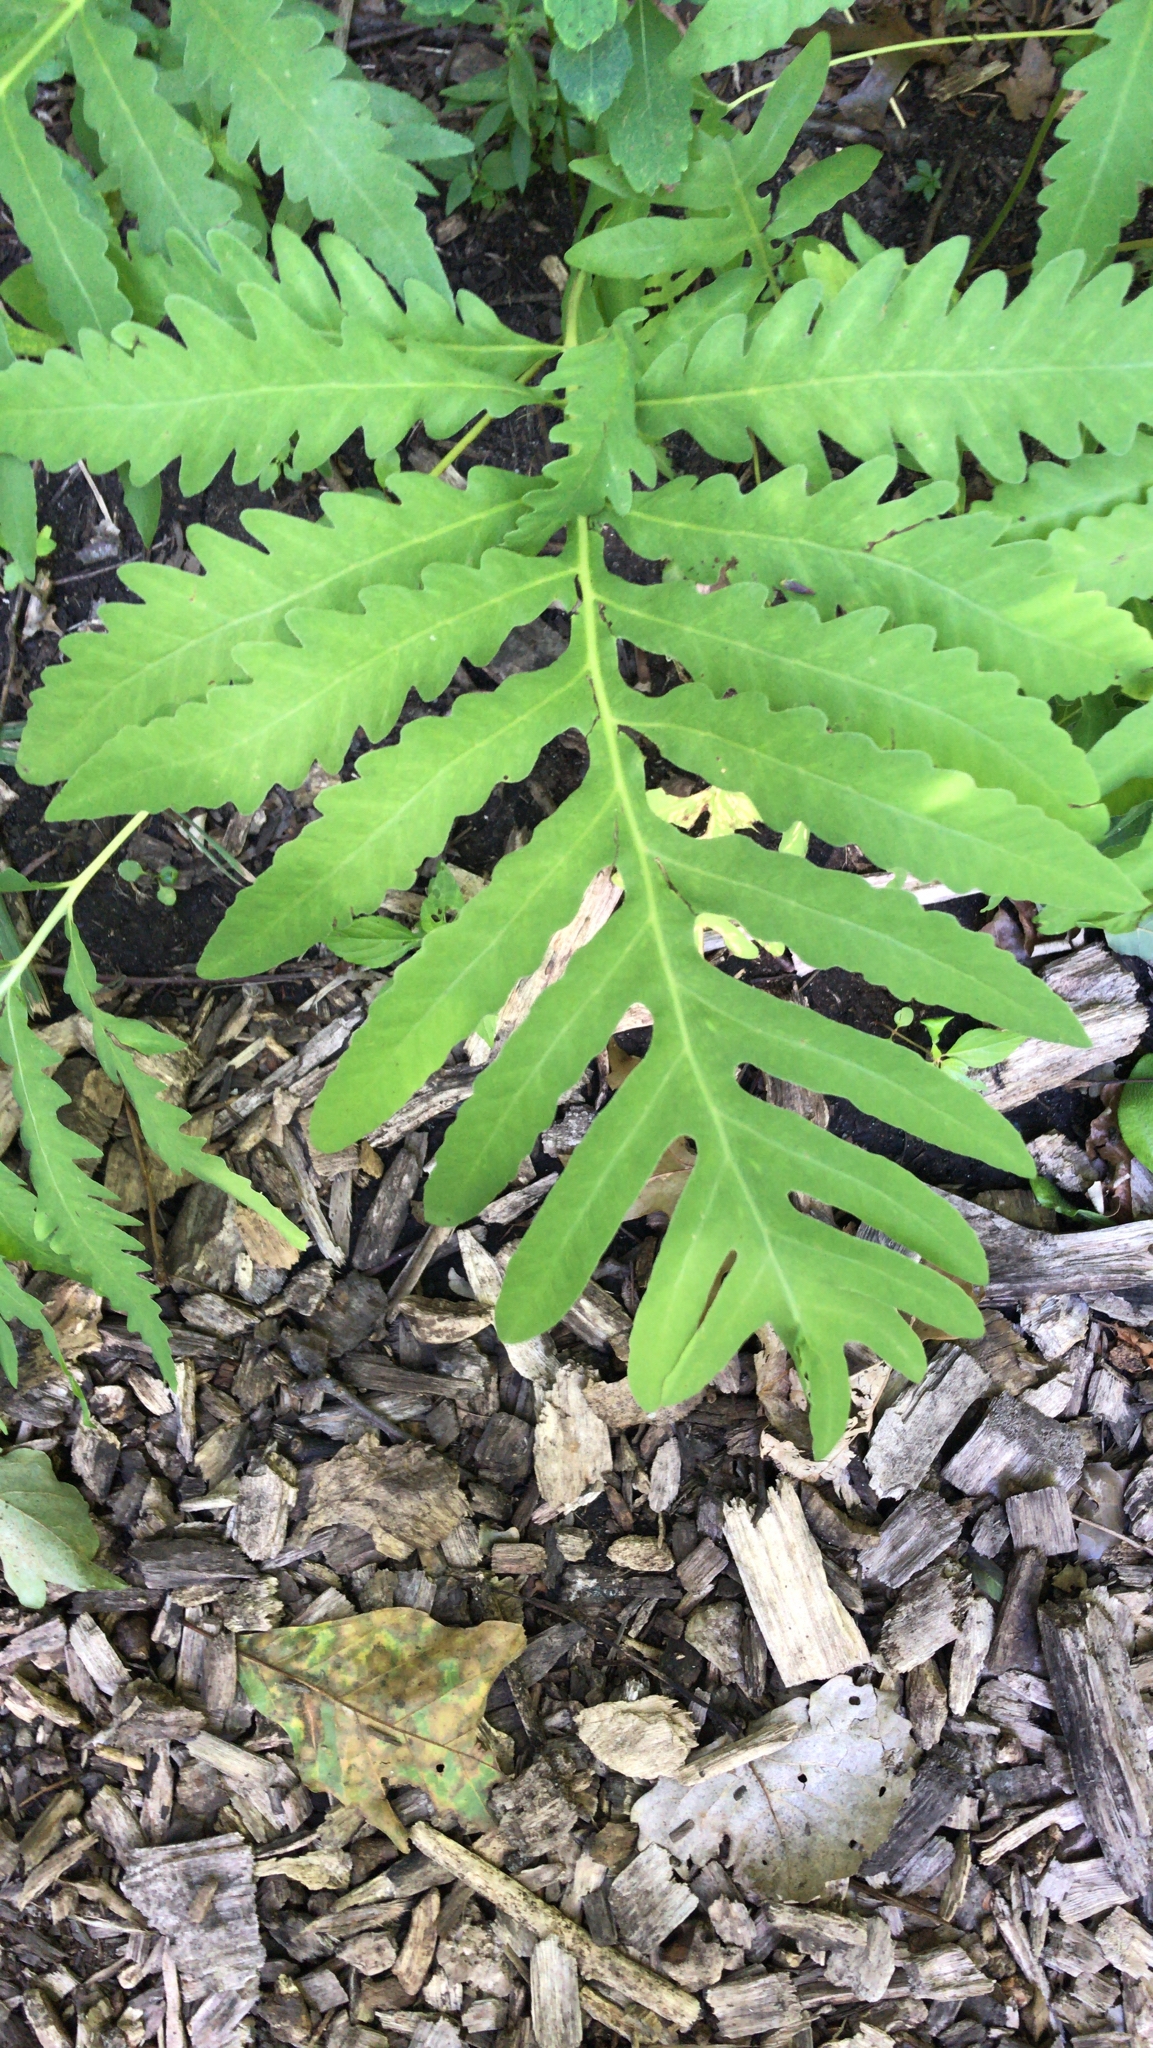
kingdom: Plantae
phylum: Tracheophyta
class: Polypodiopsida
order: Polypodiales
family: Onocleaceae
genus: Onoclea
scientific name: Onoclea sensibilis
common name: Sensitive fern
